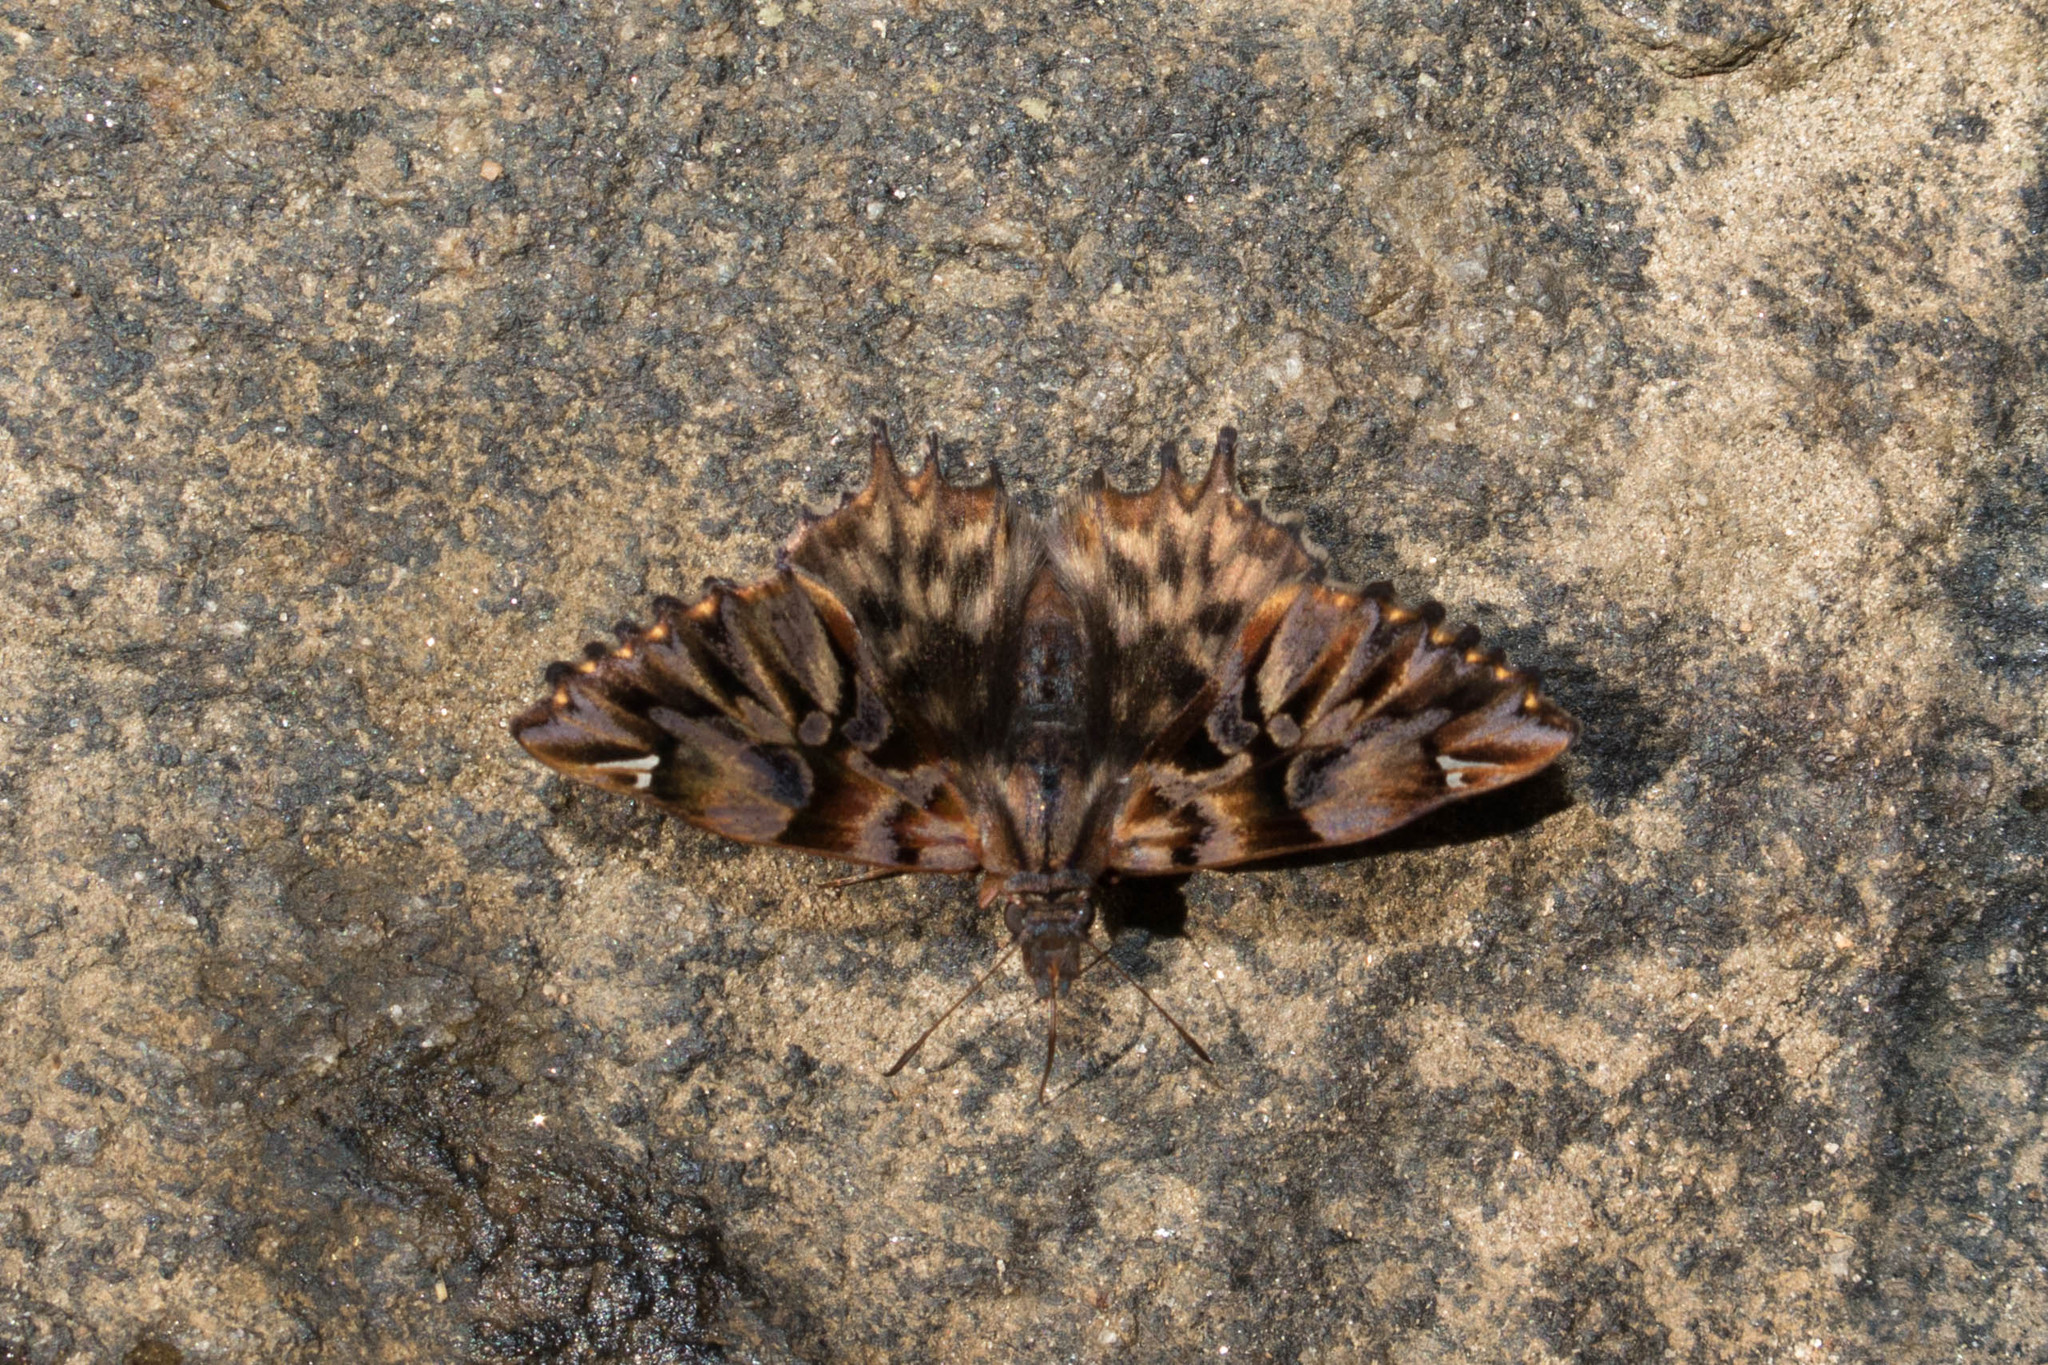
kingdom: Animalia
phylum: Arthropoda
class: Insecta
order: Lepidoptera
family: Hesperiidae
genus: Noctuana
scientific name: Noctuana diurna
